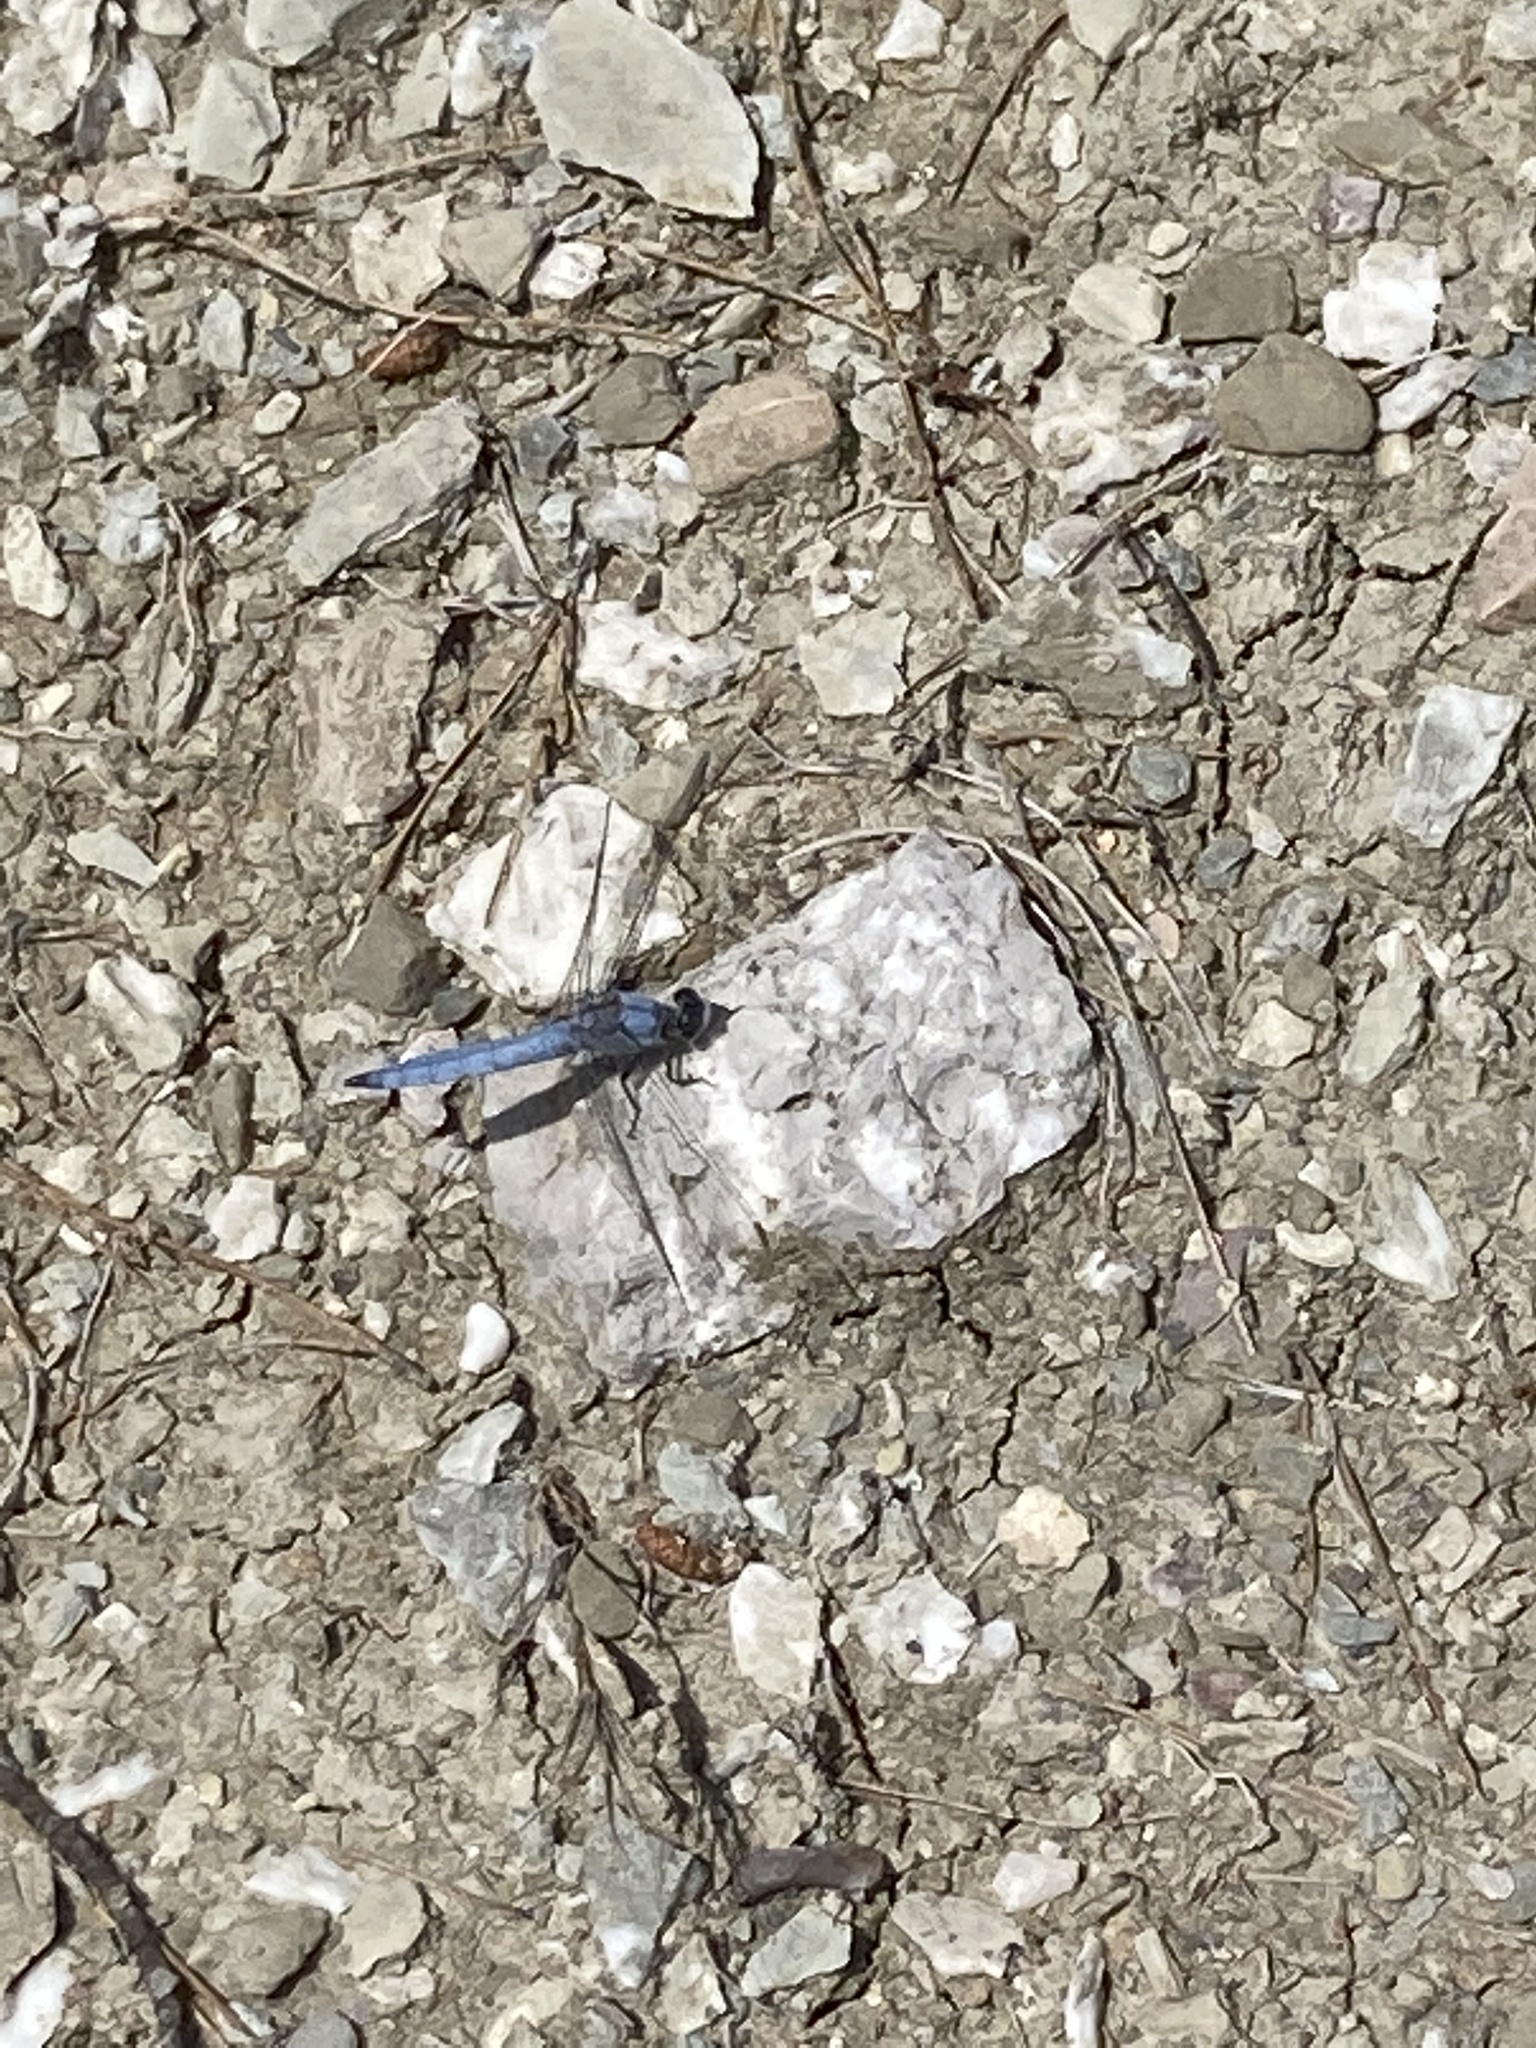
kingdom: Animalia
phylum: Arthropoda
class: Insecta
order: Odonata
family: Libellulidae
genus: Orthetrum
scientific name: Orthetrum brunneum
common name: Southern skimmer
